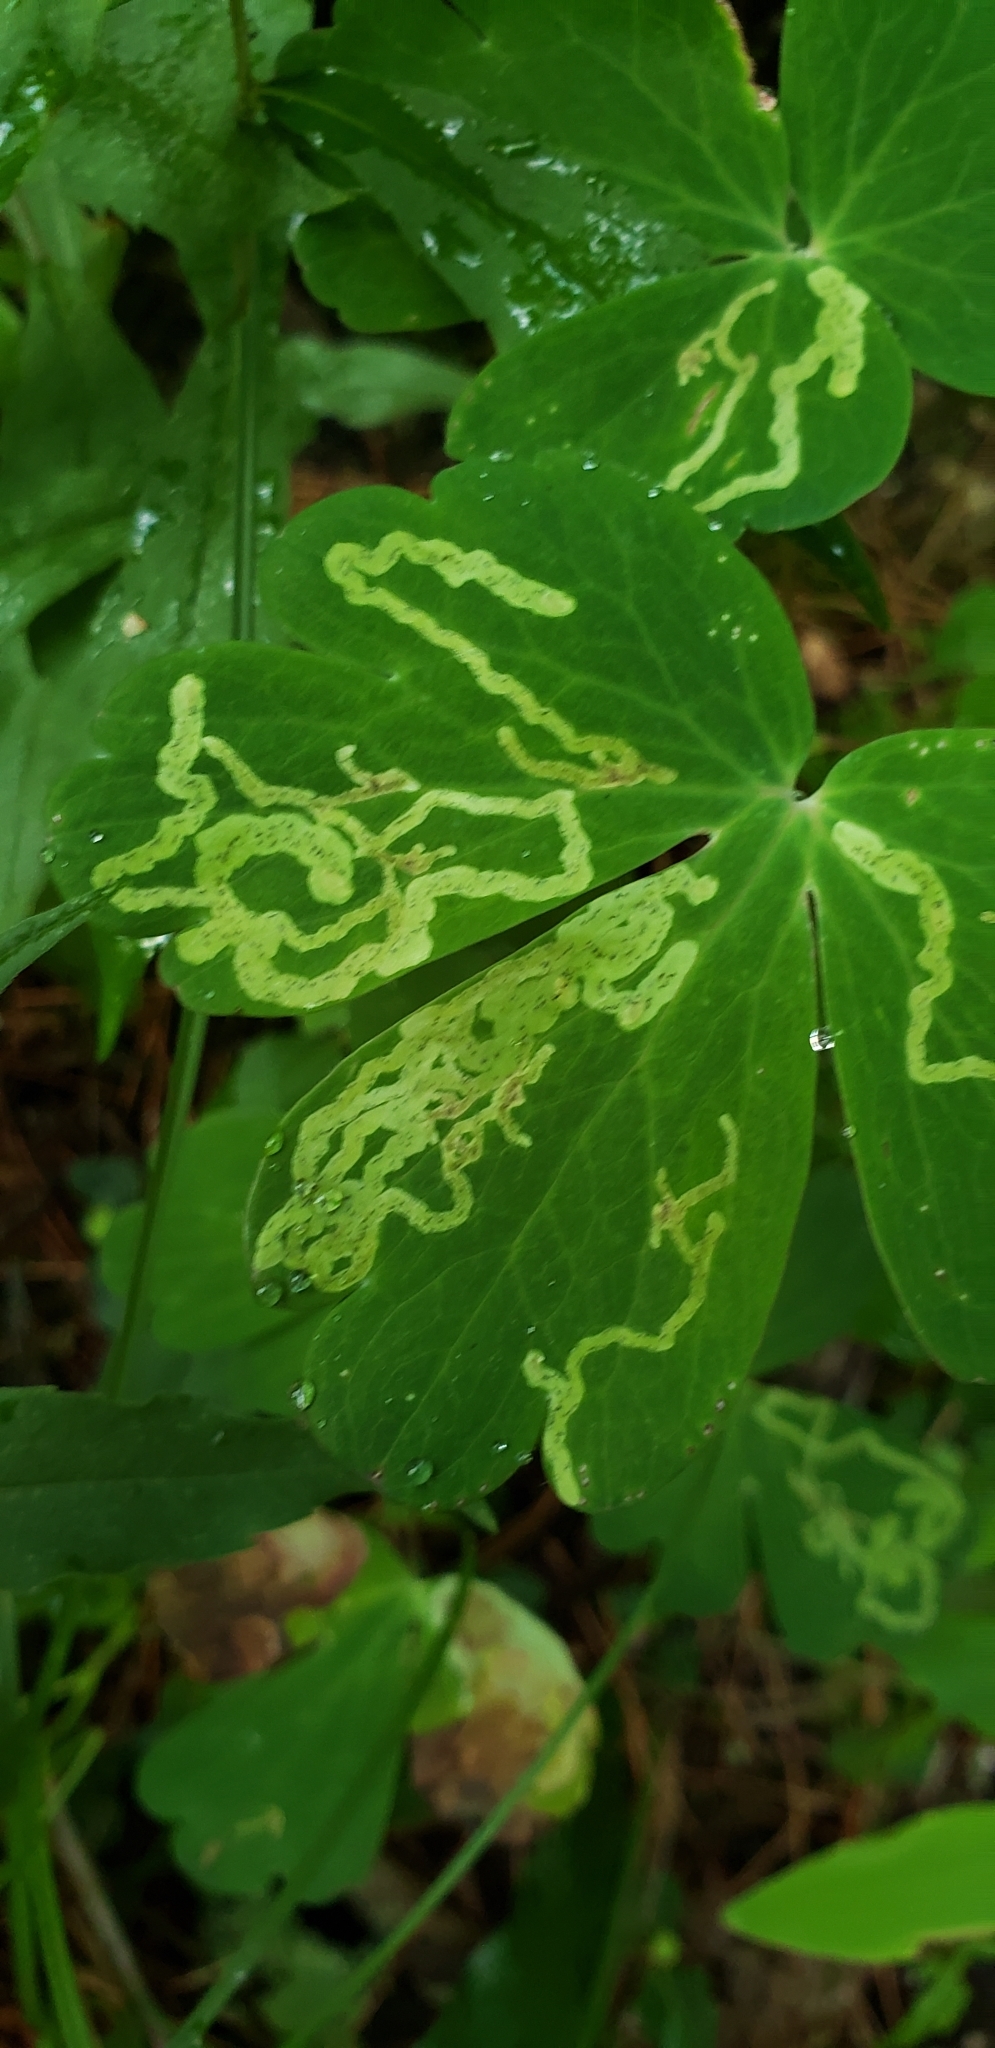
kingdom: Animalia
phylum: Arthropoda
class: Insecta
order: Diptera
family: Agromyzidae
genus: Phytomyza
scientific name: Phytomyza
